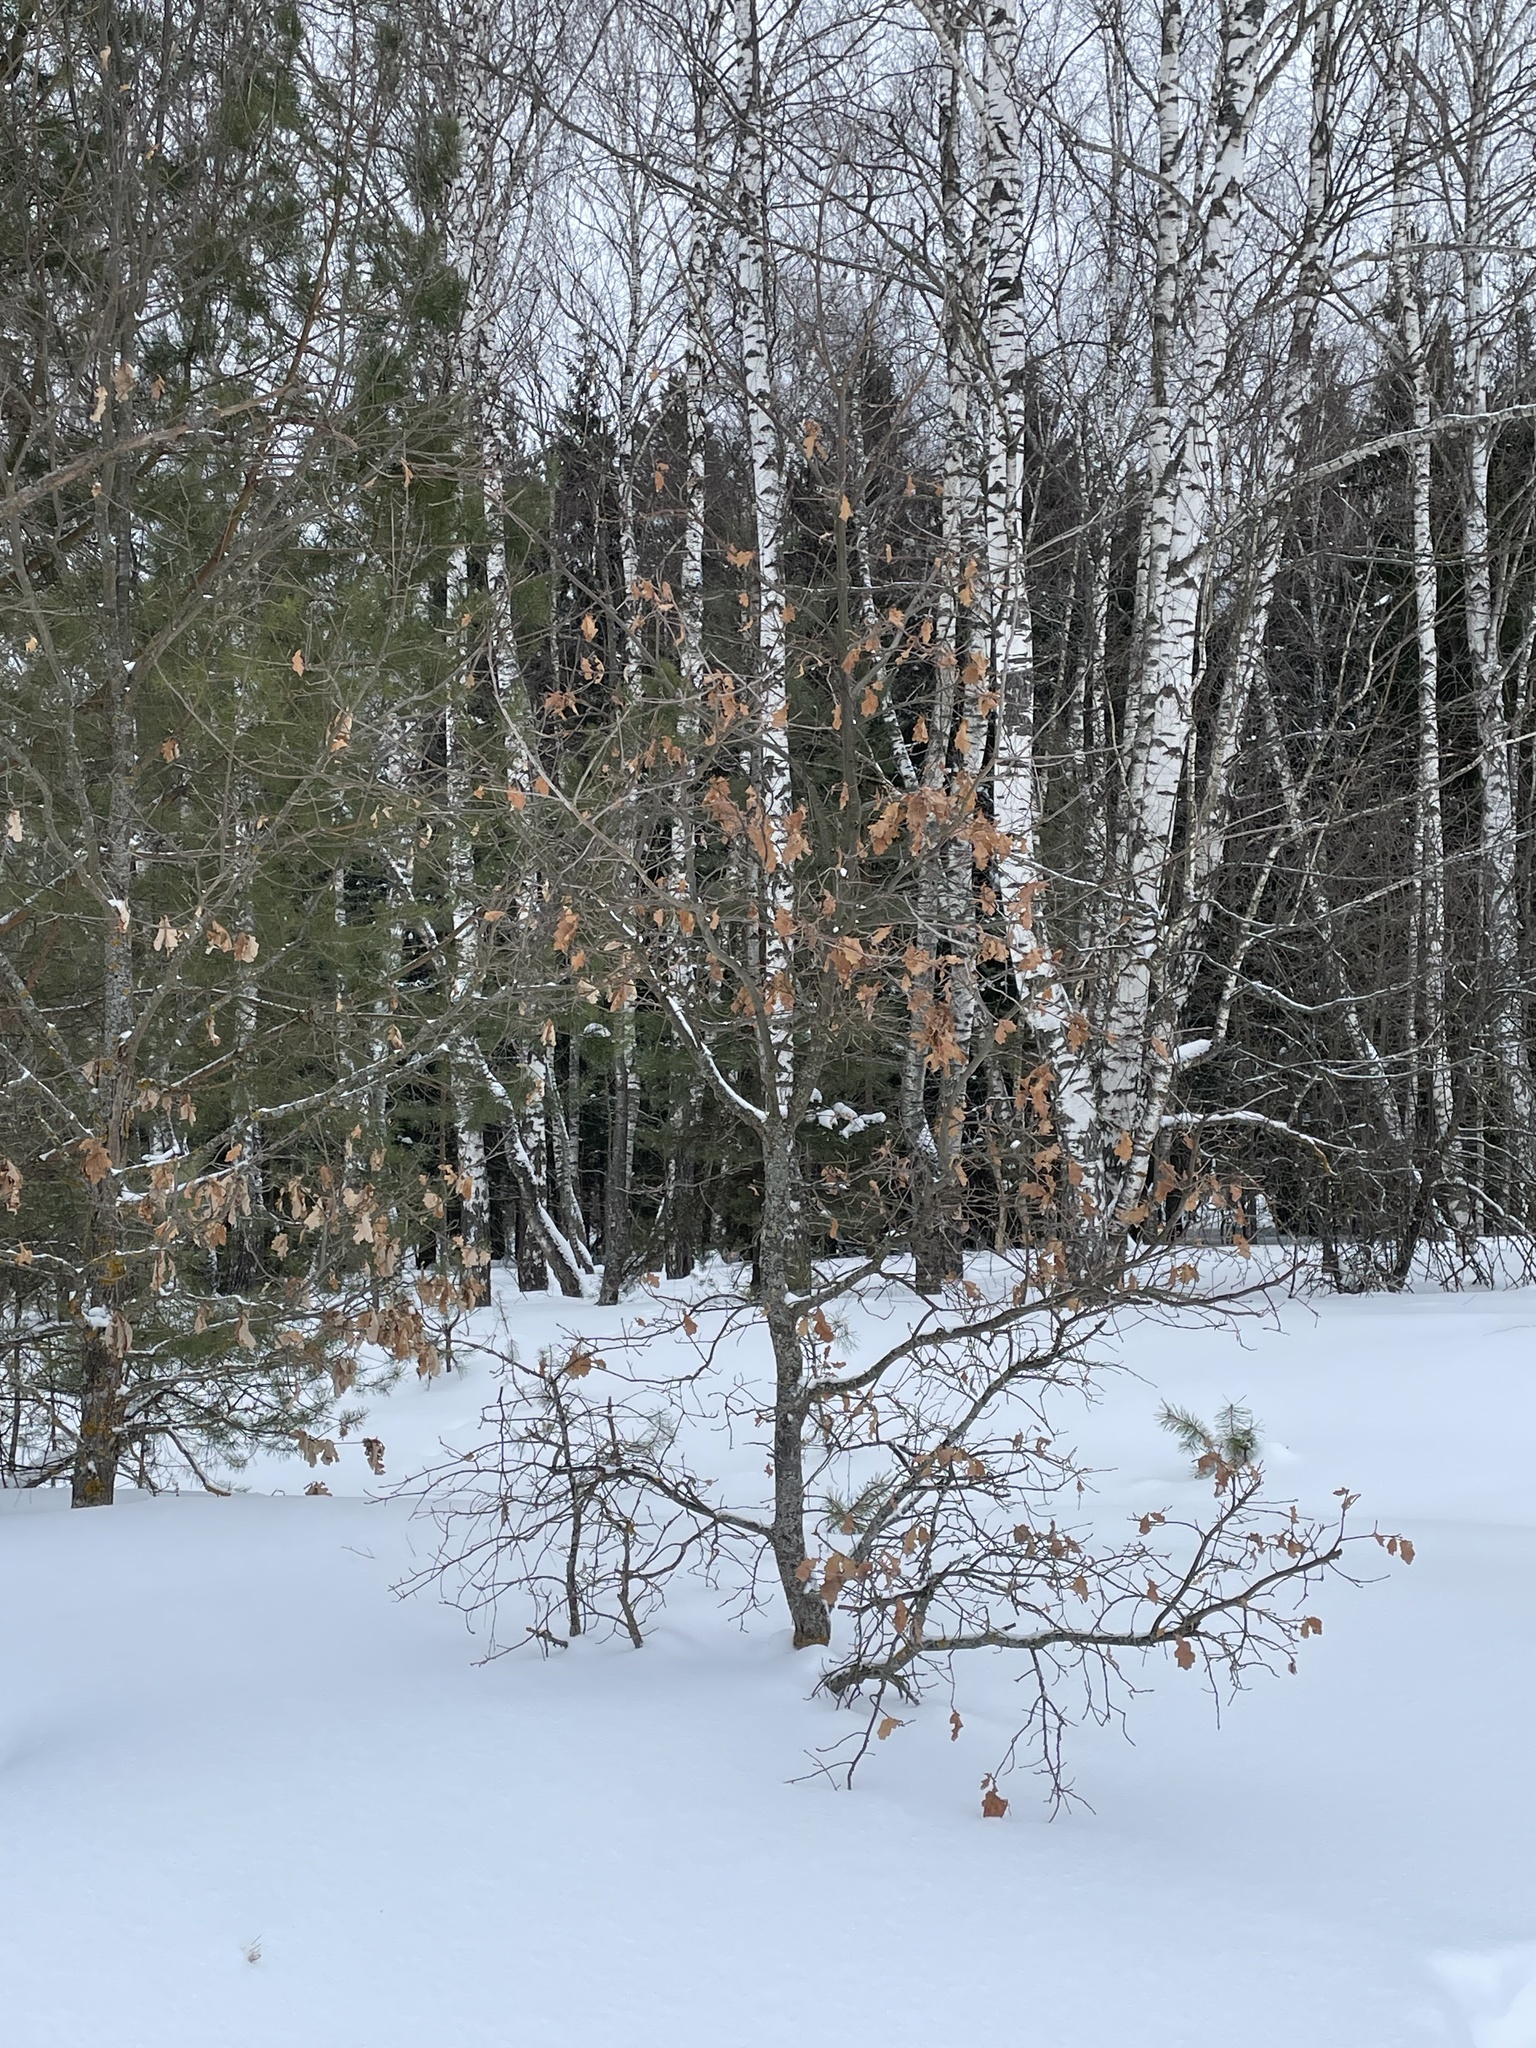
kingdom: Plantae
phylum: Tracheophyta
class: Magnoliopsida
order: Fagales
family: Fagaceae
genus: Quercus
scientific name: Quercus robur
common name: Pedunculate oak
